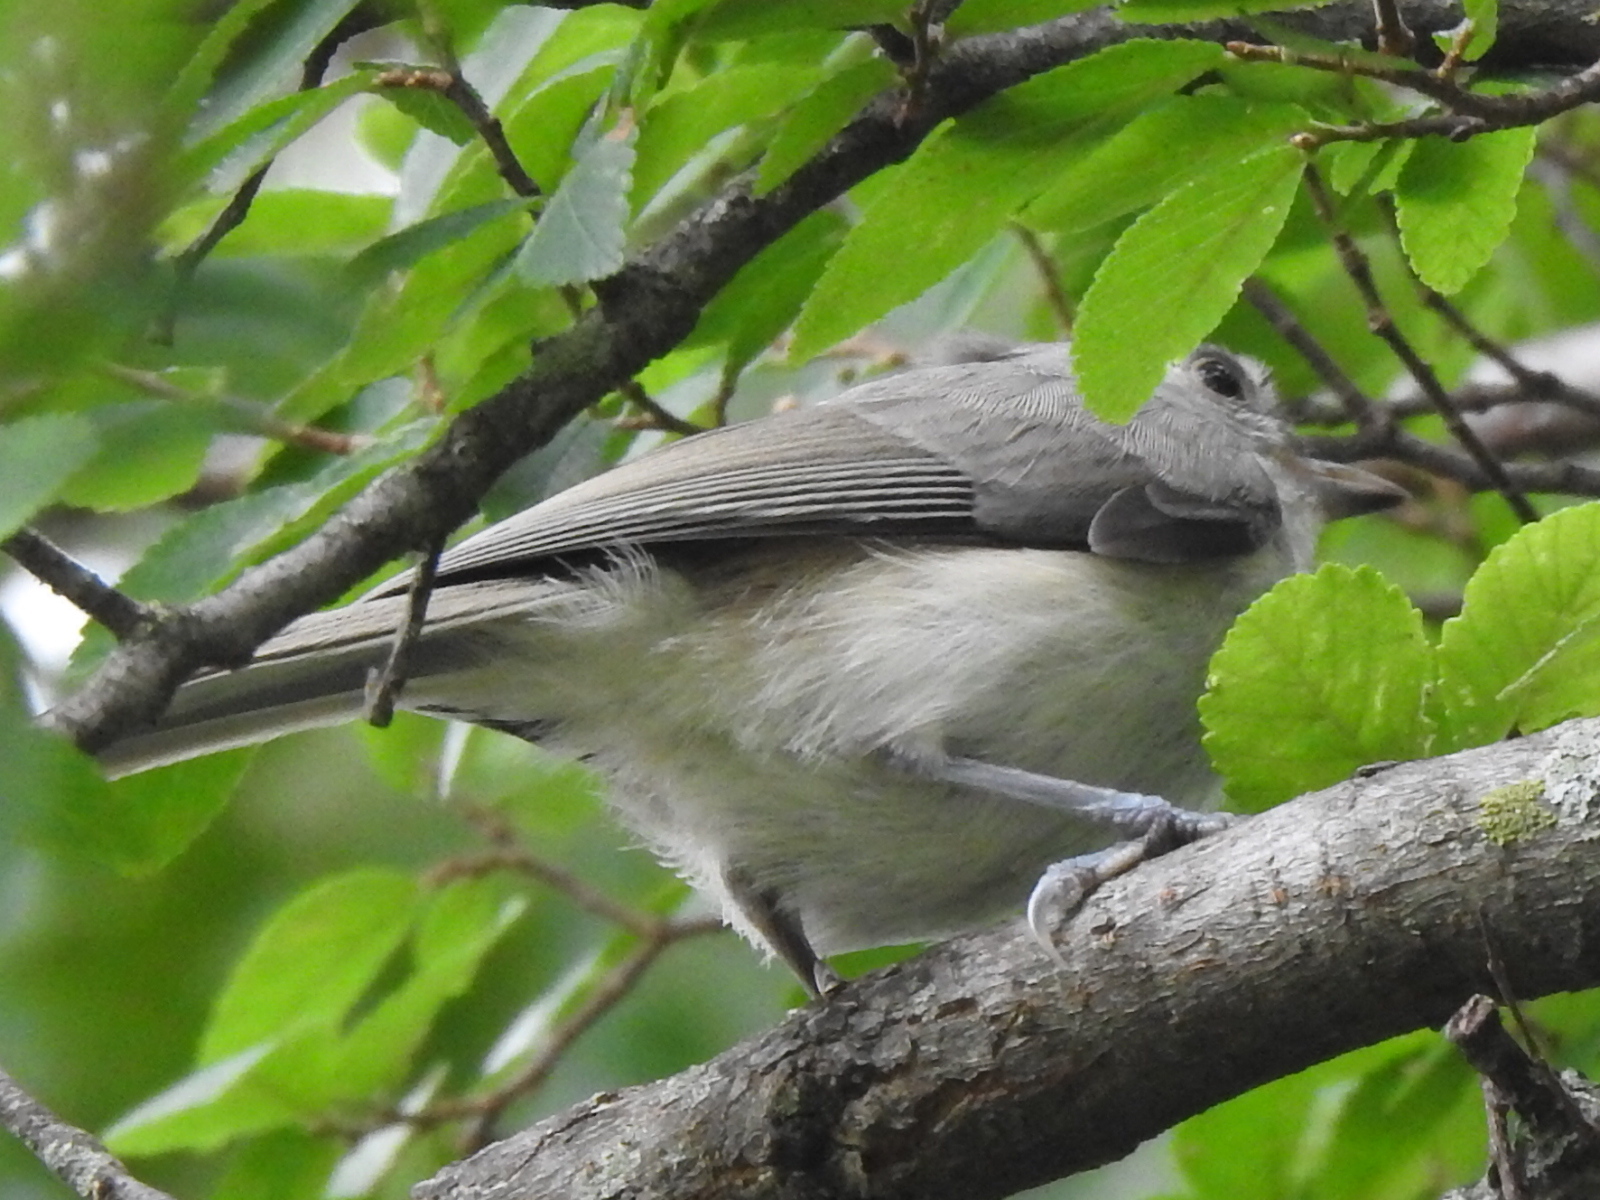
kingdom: Animalia
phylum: Chordata
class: Aves
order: Passeriformes
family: Paridae
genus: Baeolophus
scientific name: Baeolophus bicolor
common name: Tufted titmouse
